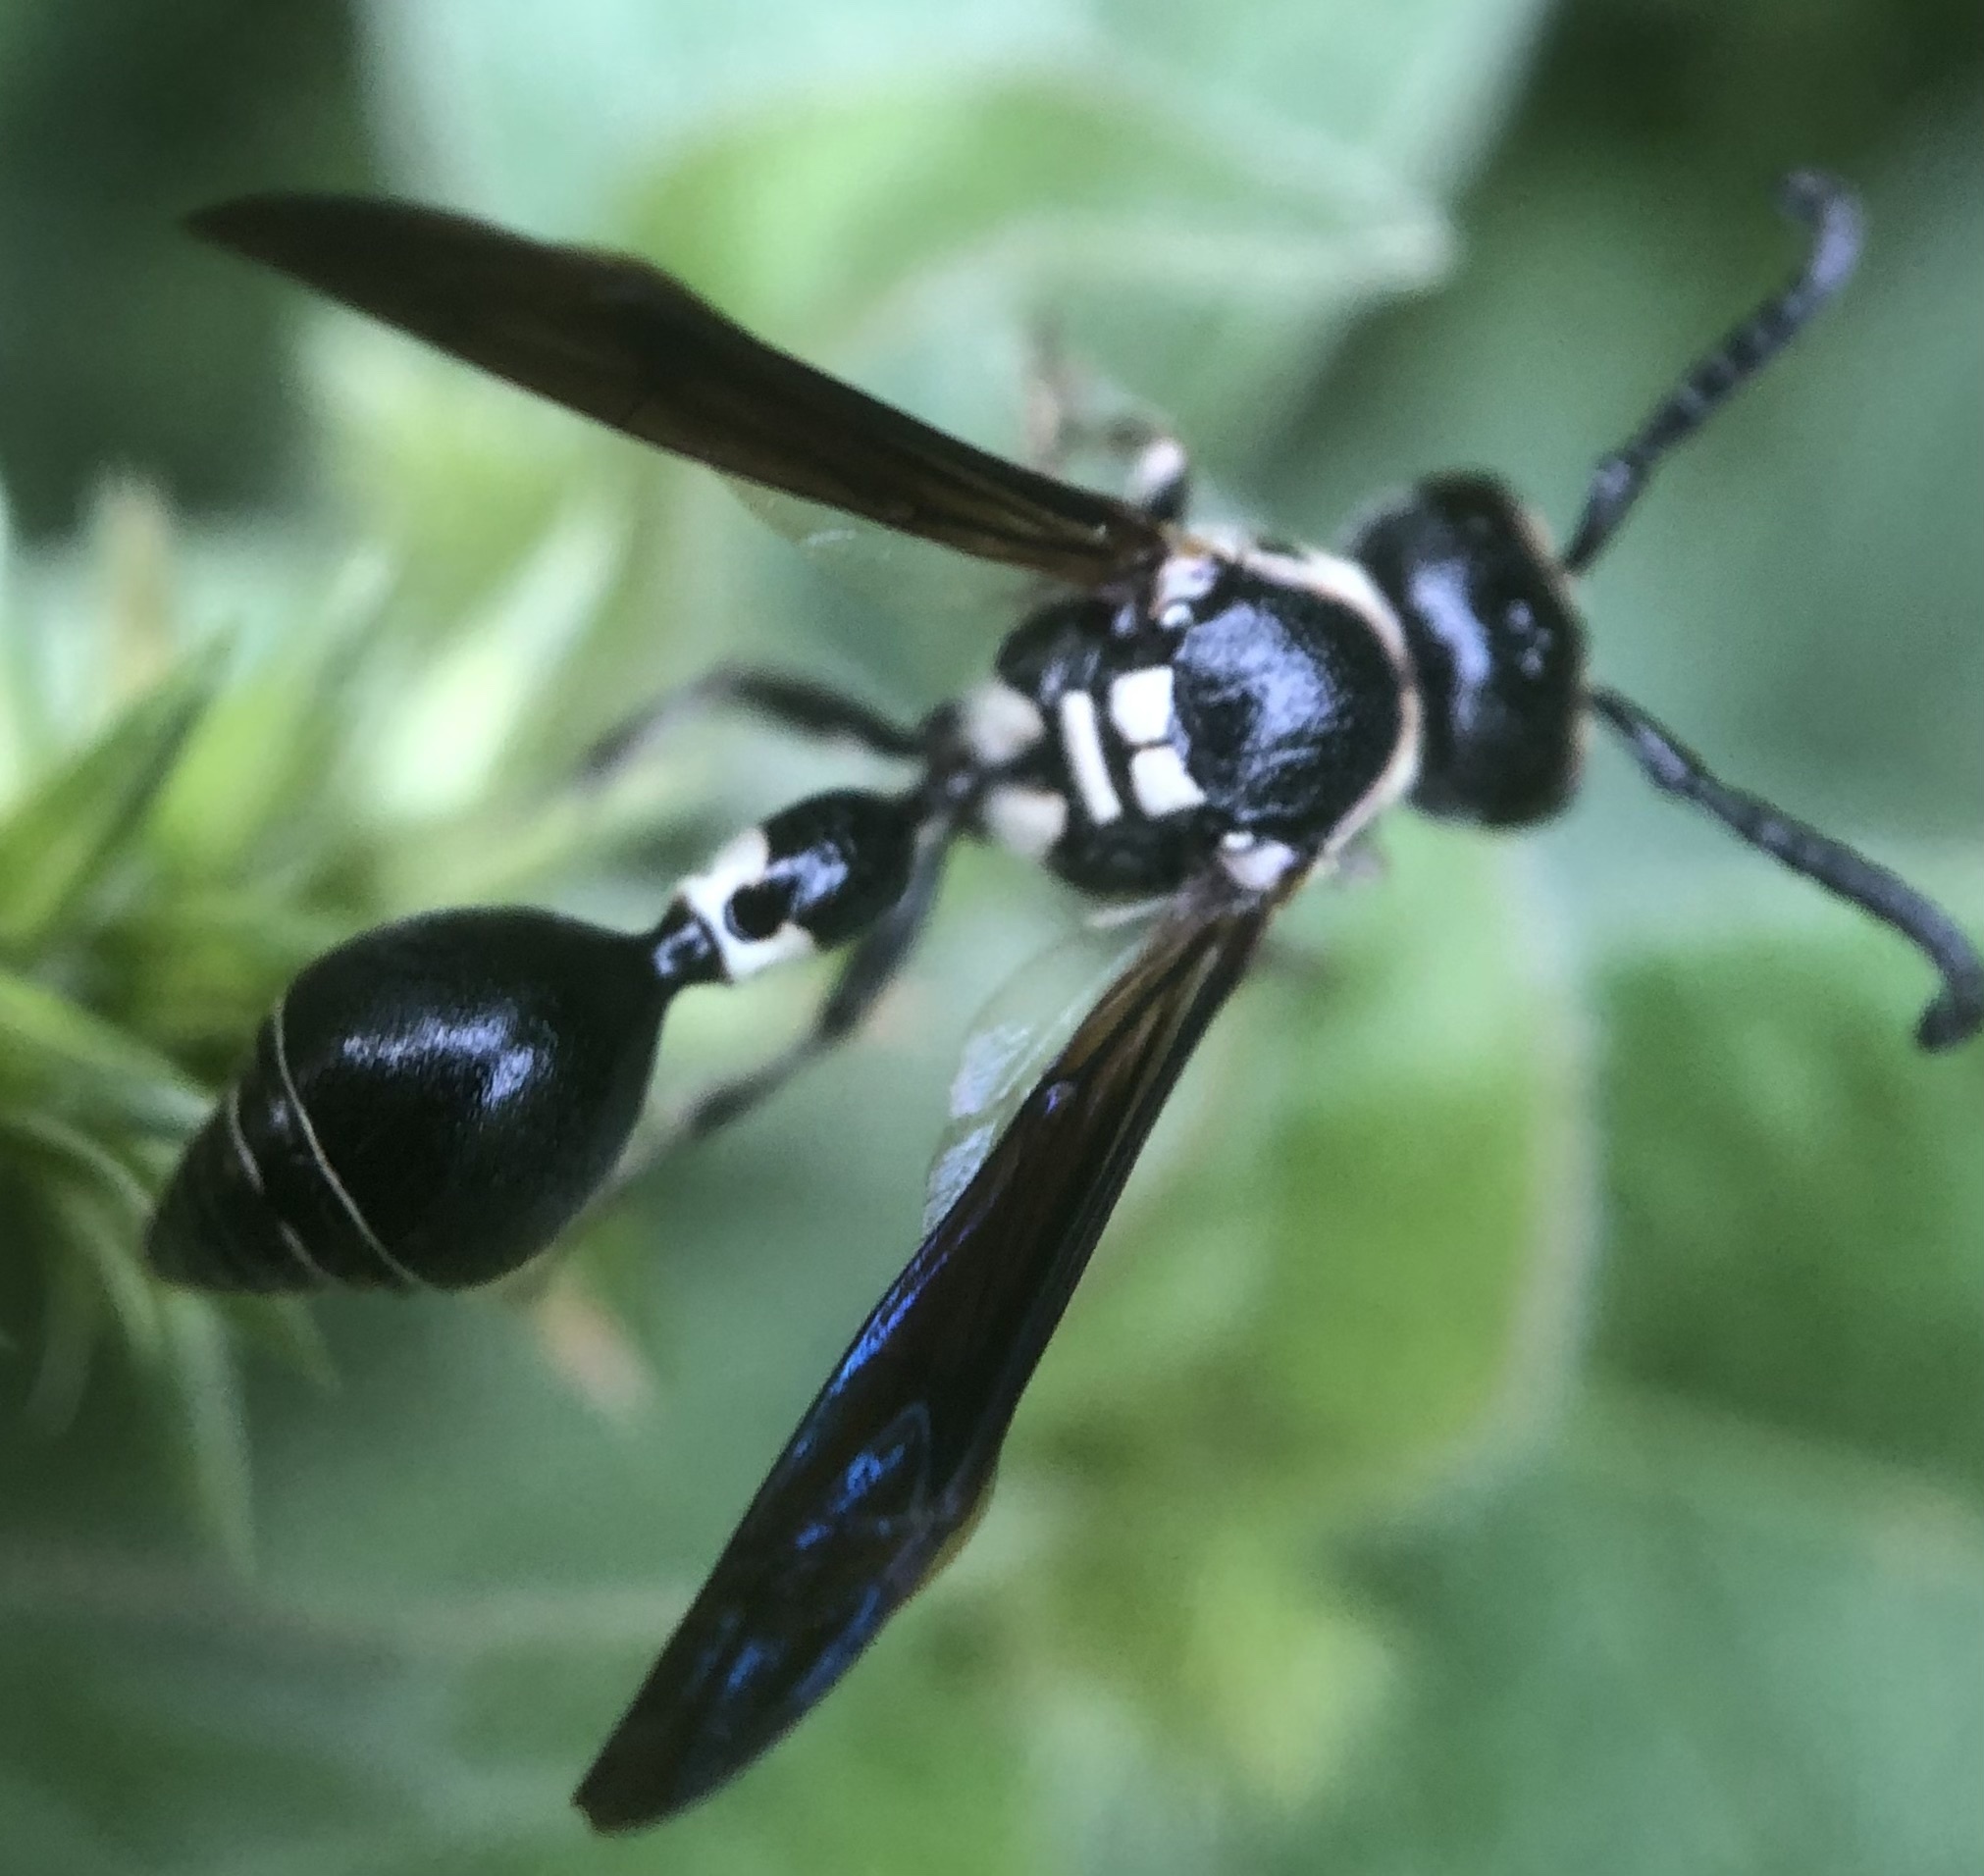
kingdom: Animalia
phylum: Arthropoda
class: Insecta
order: Hymenoptera
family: Eumenidae
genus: Zethus
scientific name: Zethus spinipes
